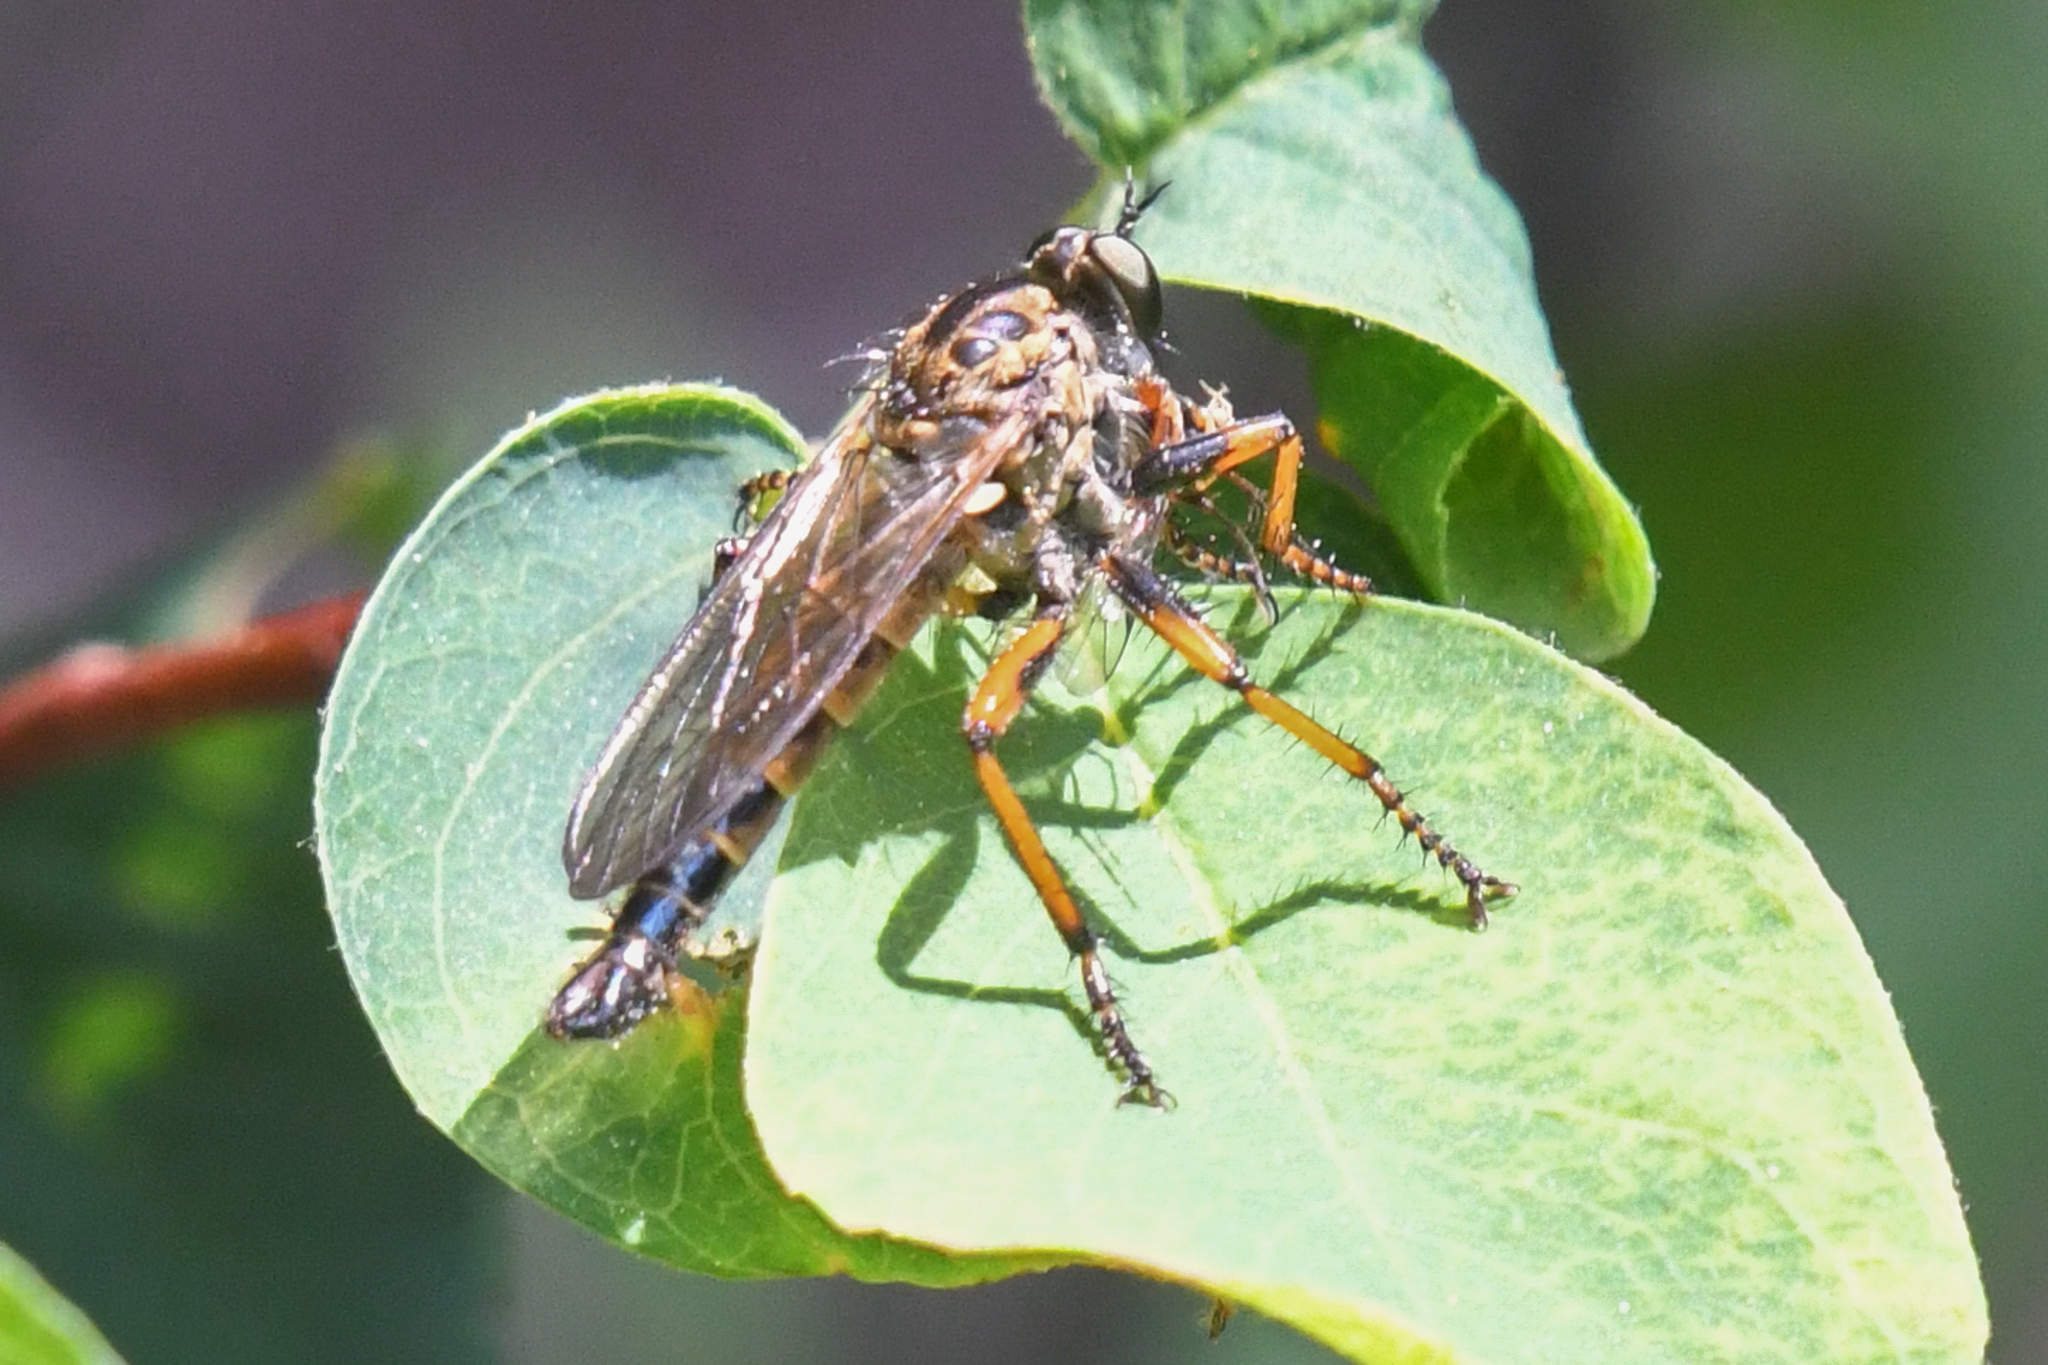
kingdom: Animalia
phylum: Arthropoda
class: Insecta
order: Diptera
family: Asilidae
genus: Nevadasilus
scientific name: Nevadasilus auriannulatus
